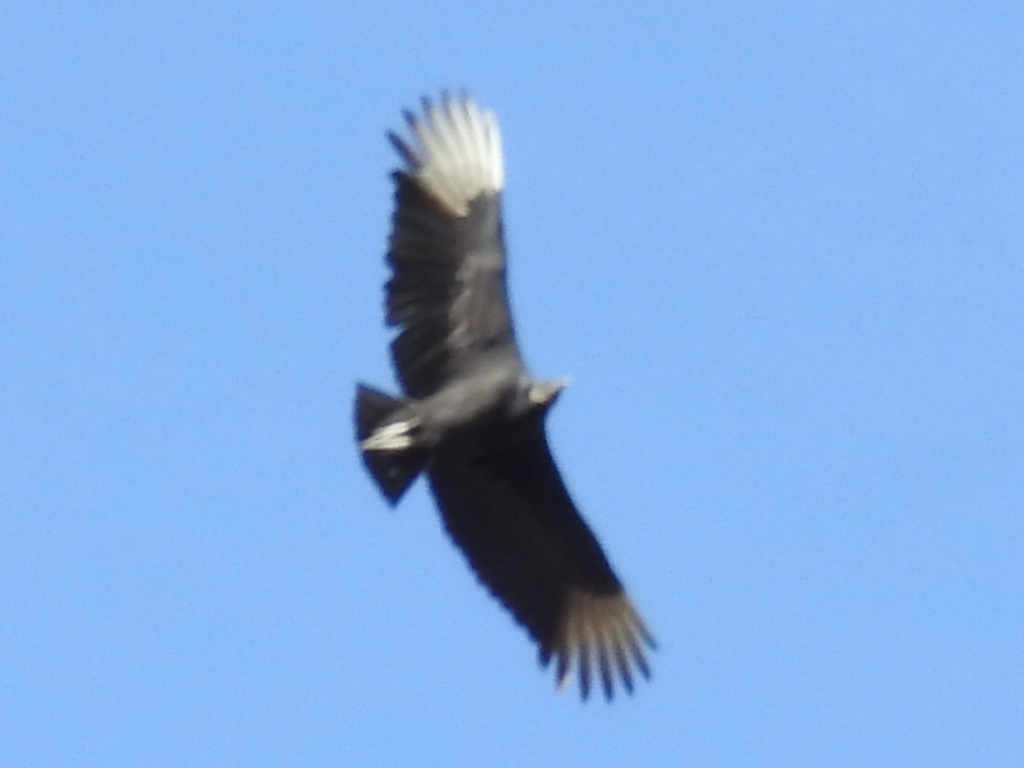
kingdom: Animalia
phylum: Chordata
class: Aves
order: Accipitriformes
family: Cathartidae
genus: Coragyps
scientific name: Coragyps atratus
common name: Black vulture
